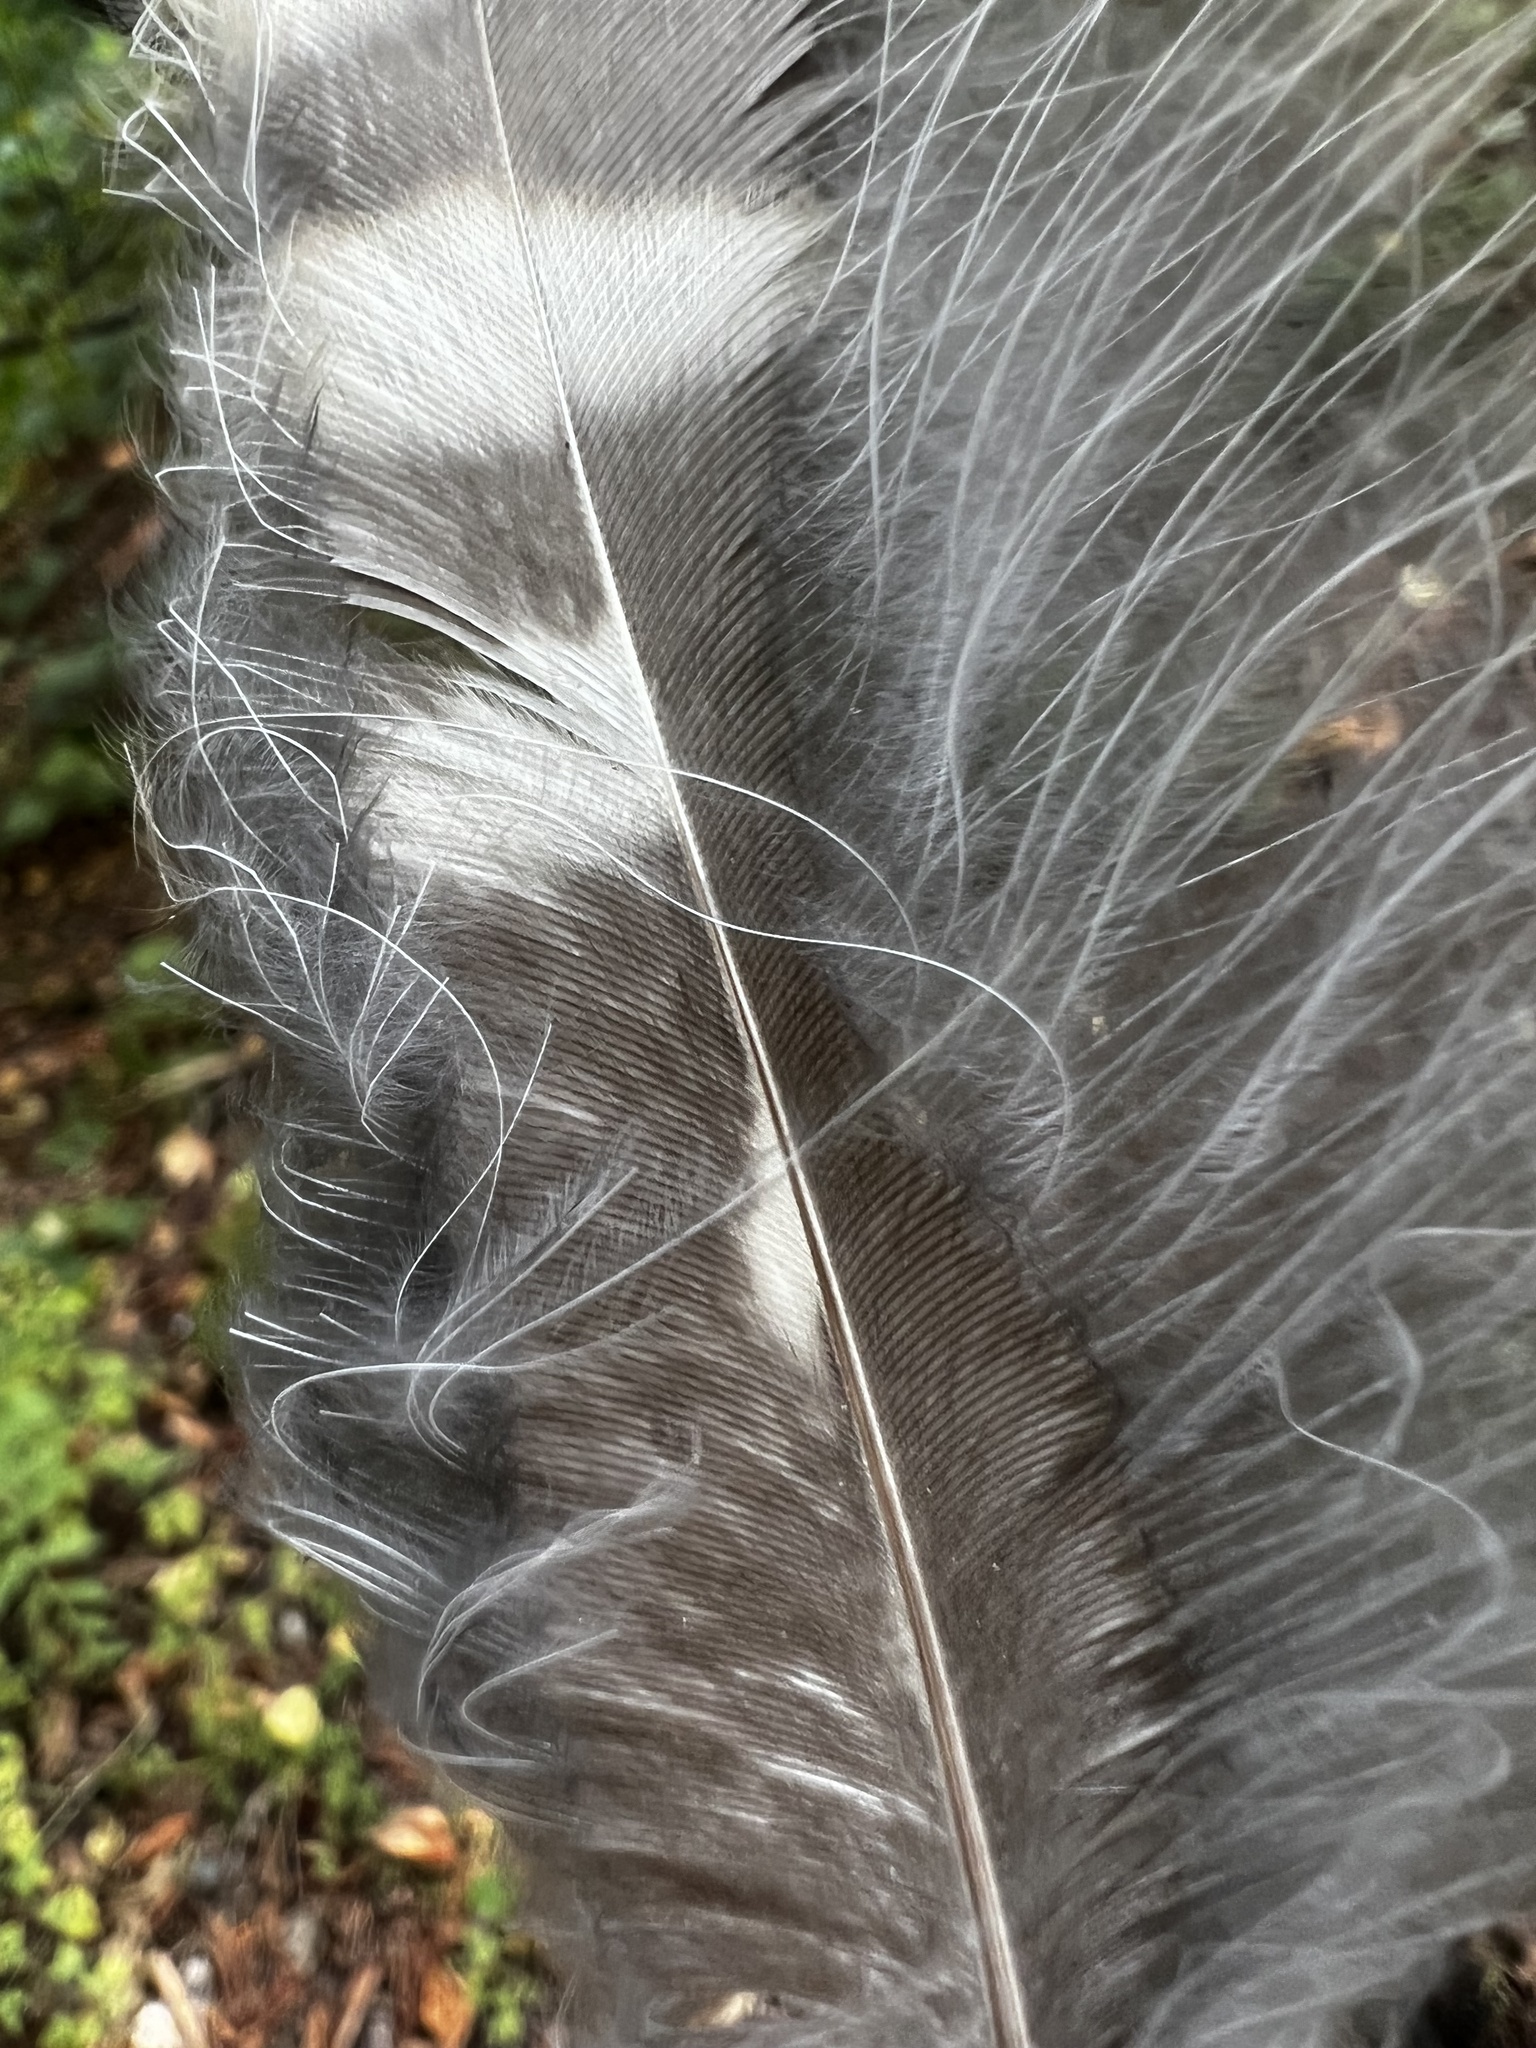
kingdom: Animalia
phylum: Chordata
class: Aves
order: Strigiformes
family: Strigidae
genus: Strix
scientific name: Strix varia
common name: Barred owl
